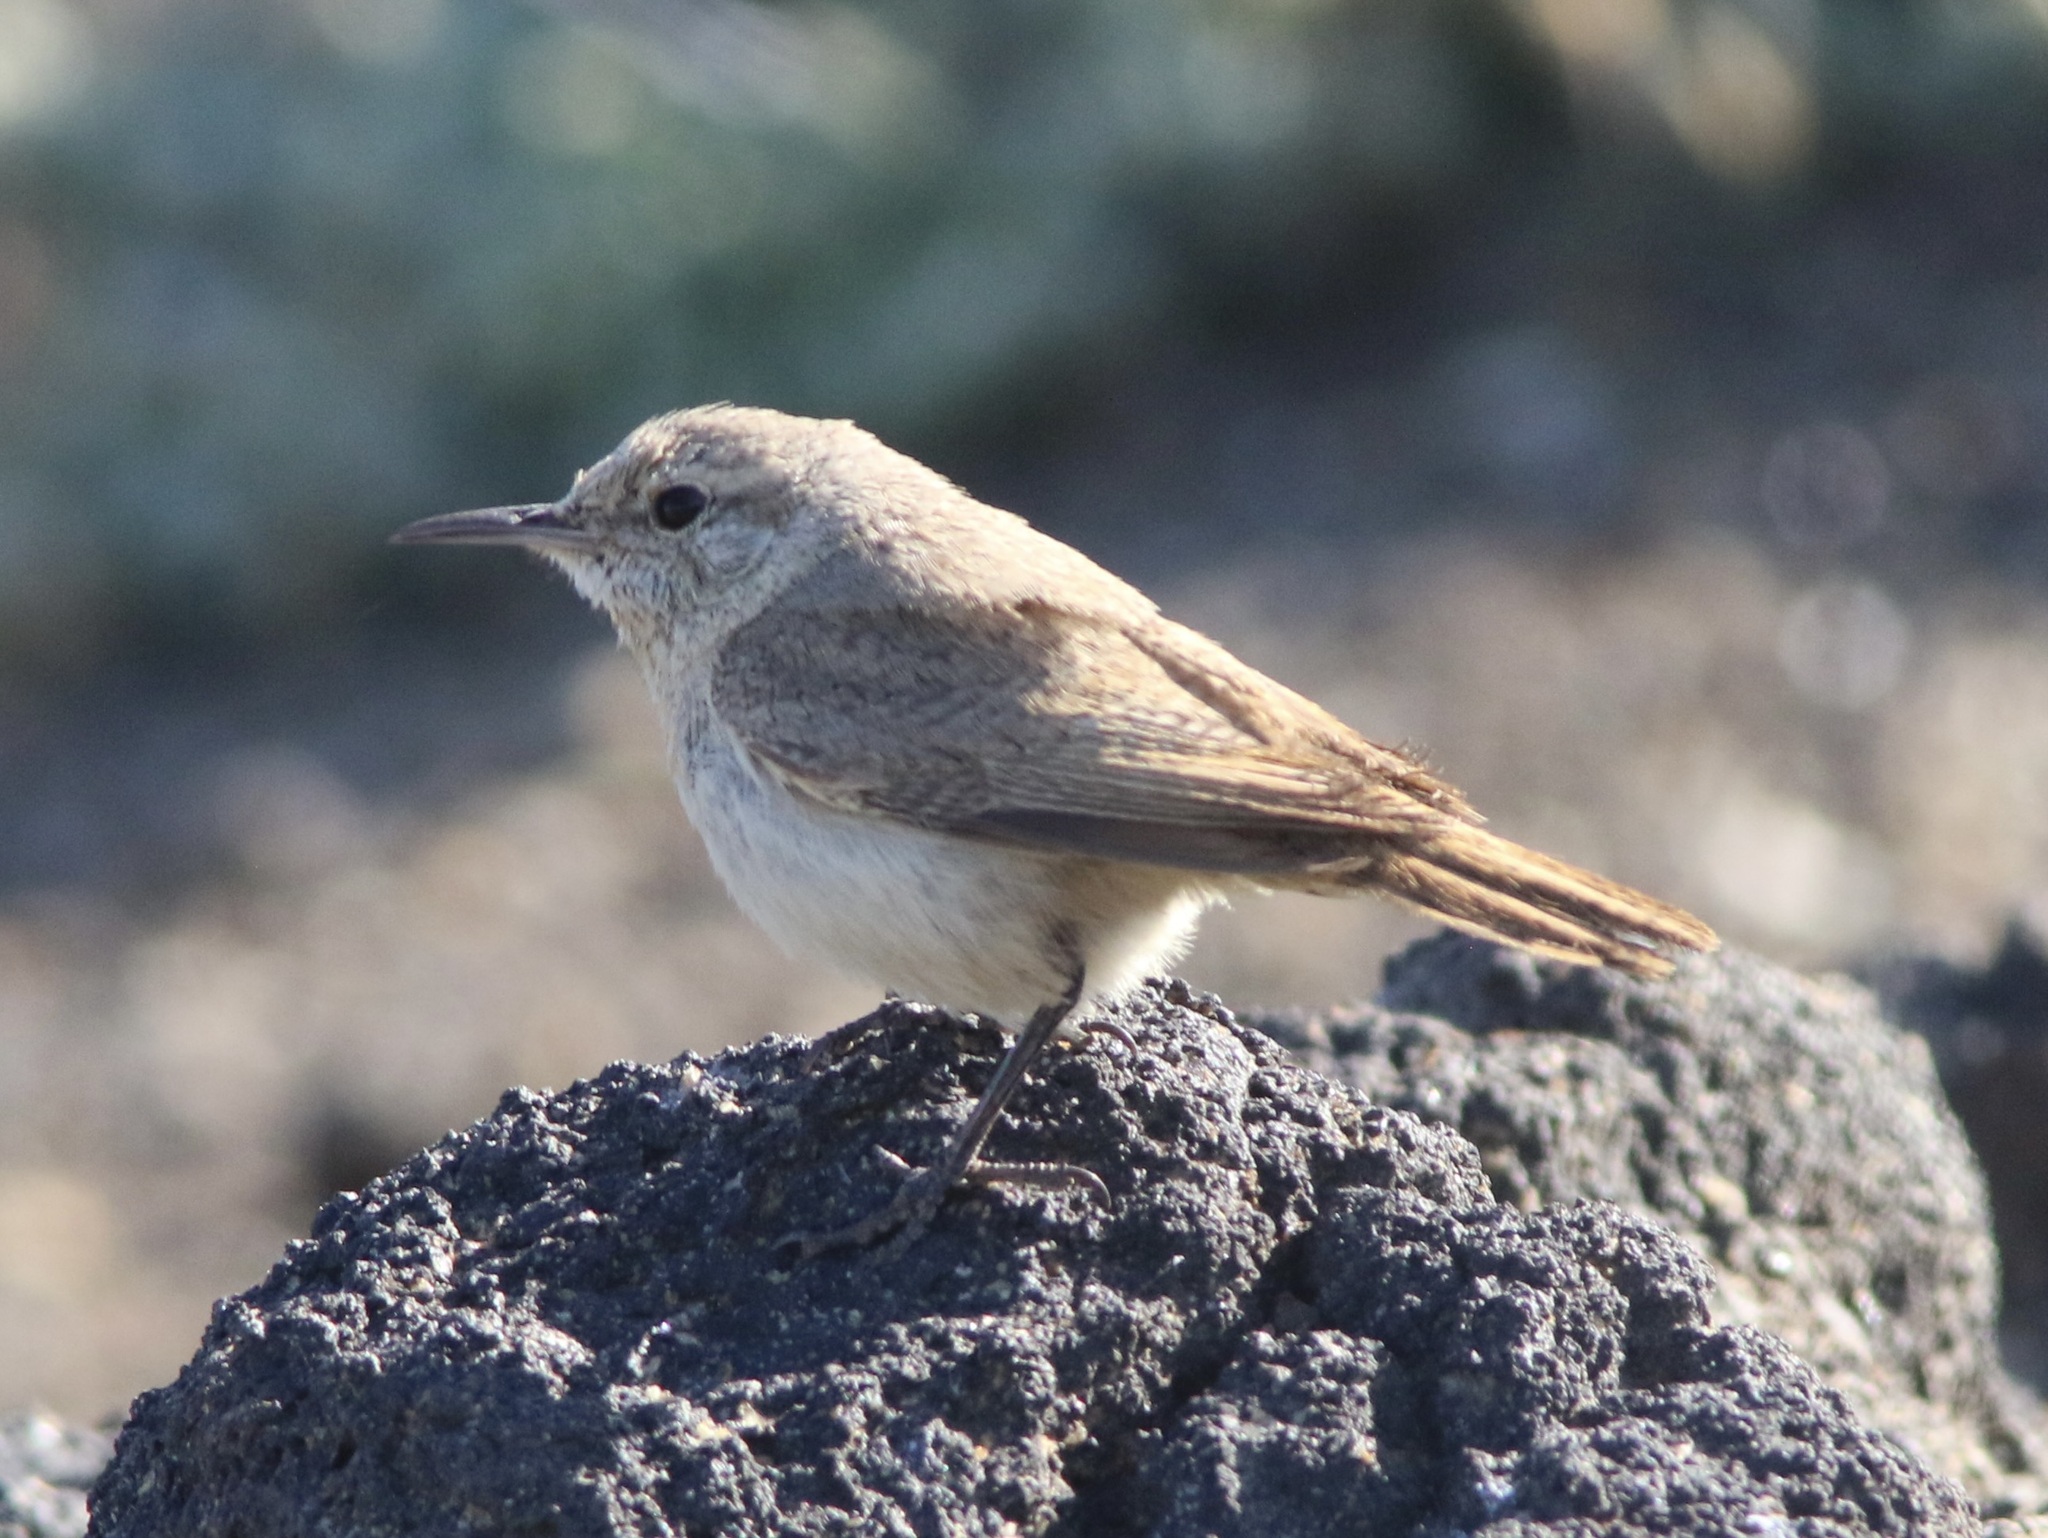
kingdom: Animalia
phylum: Chordata
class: Aves
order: Passeriformes
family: Troglodytidae
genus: Salpinctes
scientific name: Salpinctes obsoletus
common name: Rock wren
